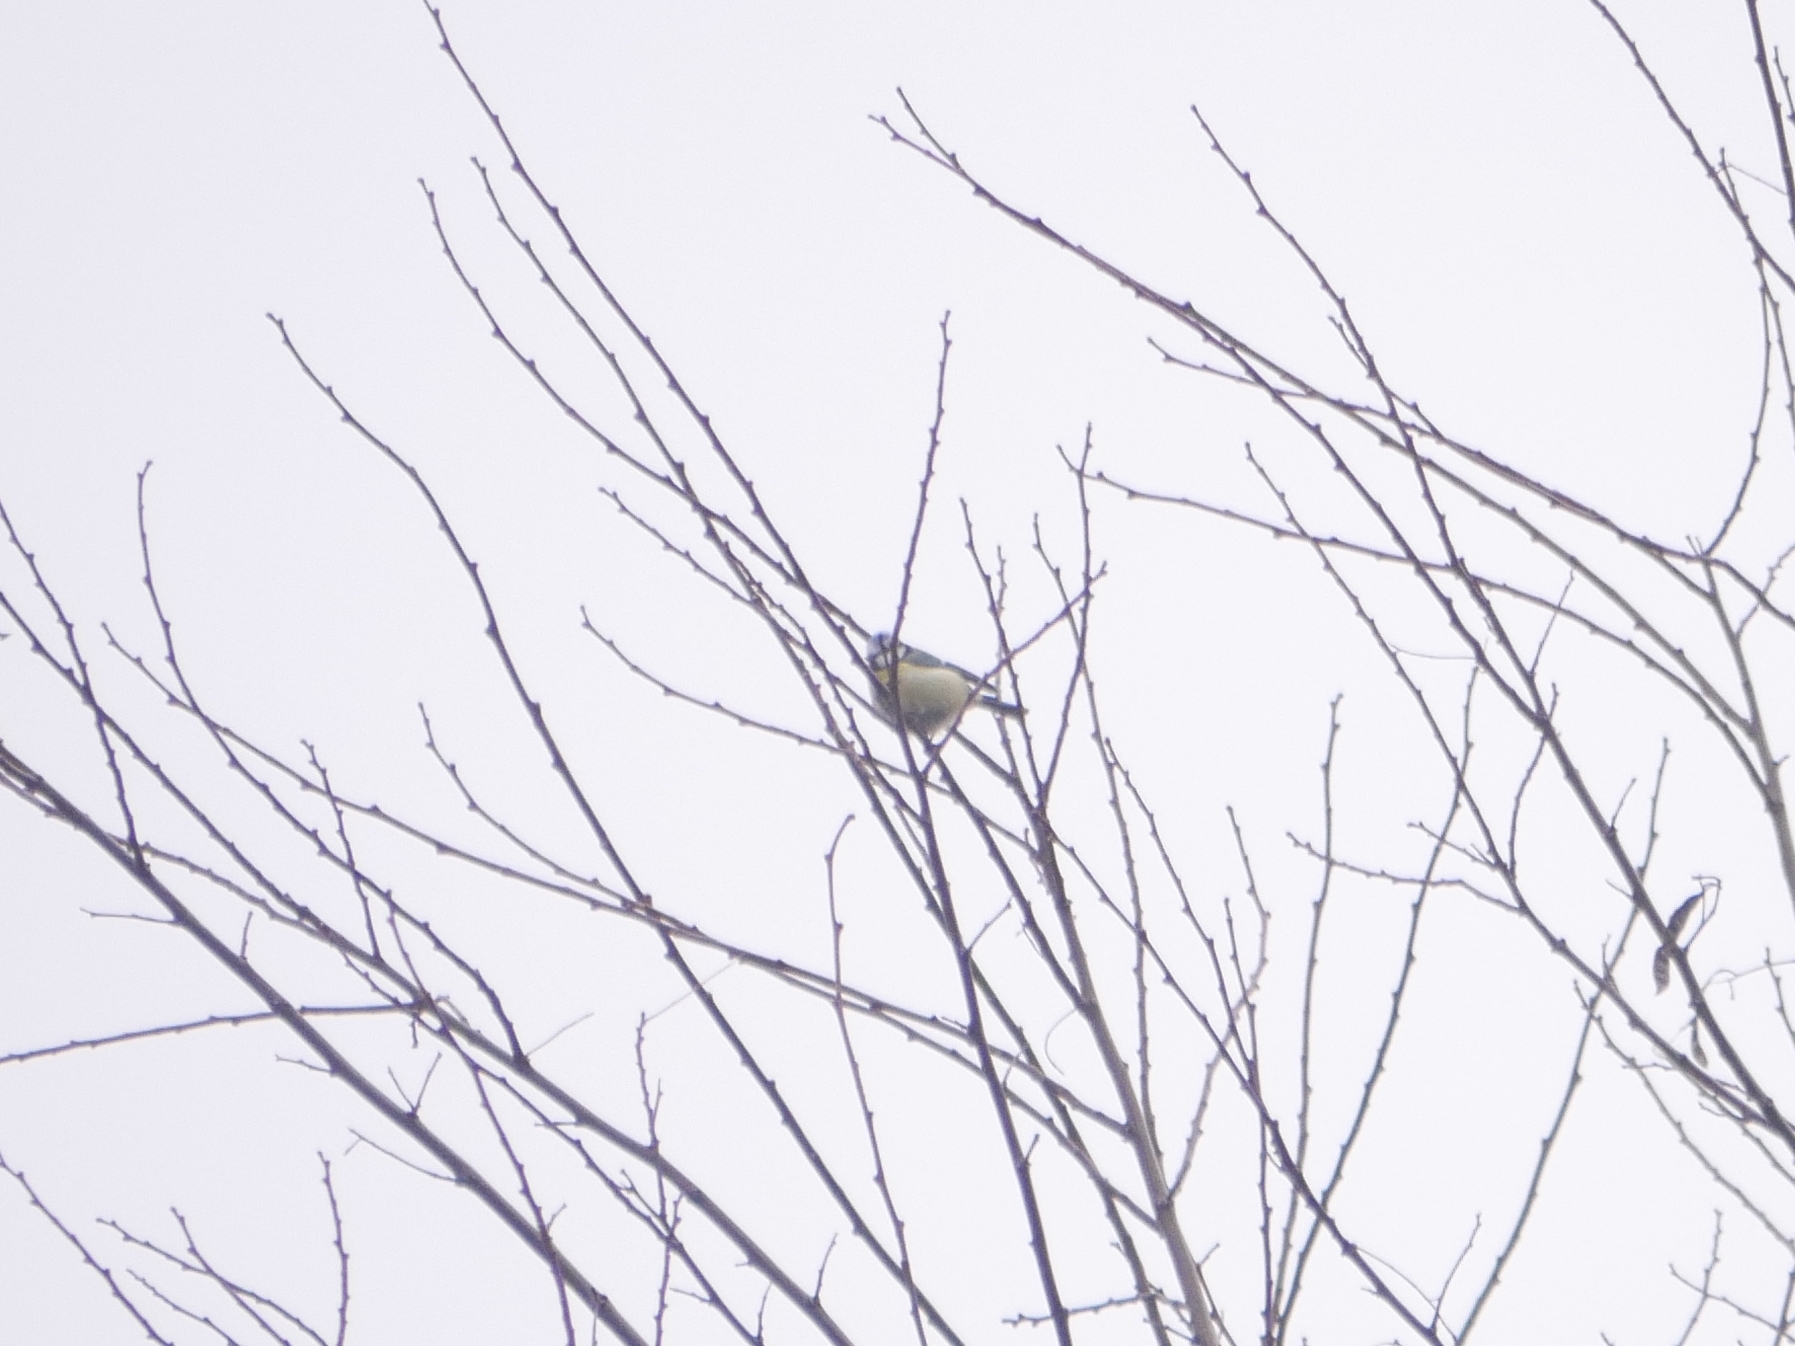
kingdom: Animalia
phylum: Chordata
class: Aves
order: Passeriformes
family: Paridae
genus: Cyanistes
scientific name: Cyanistes caeruleus
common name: Eurasian blue tit
